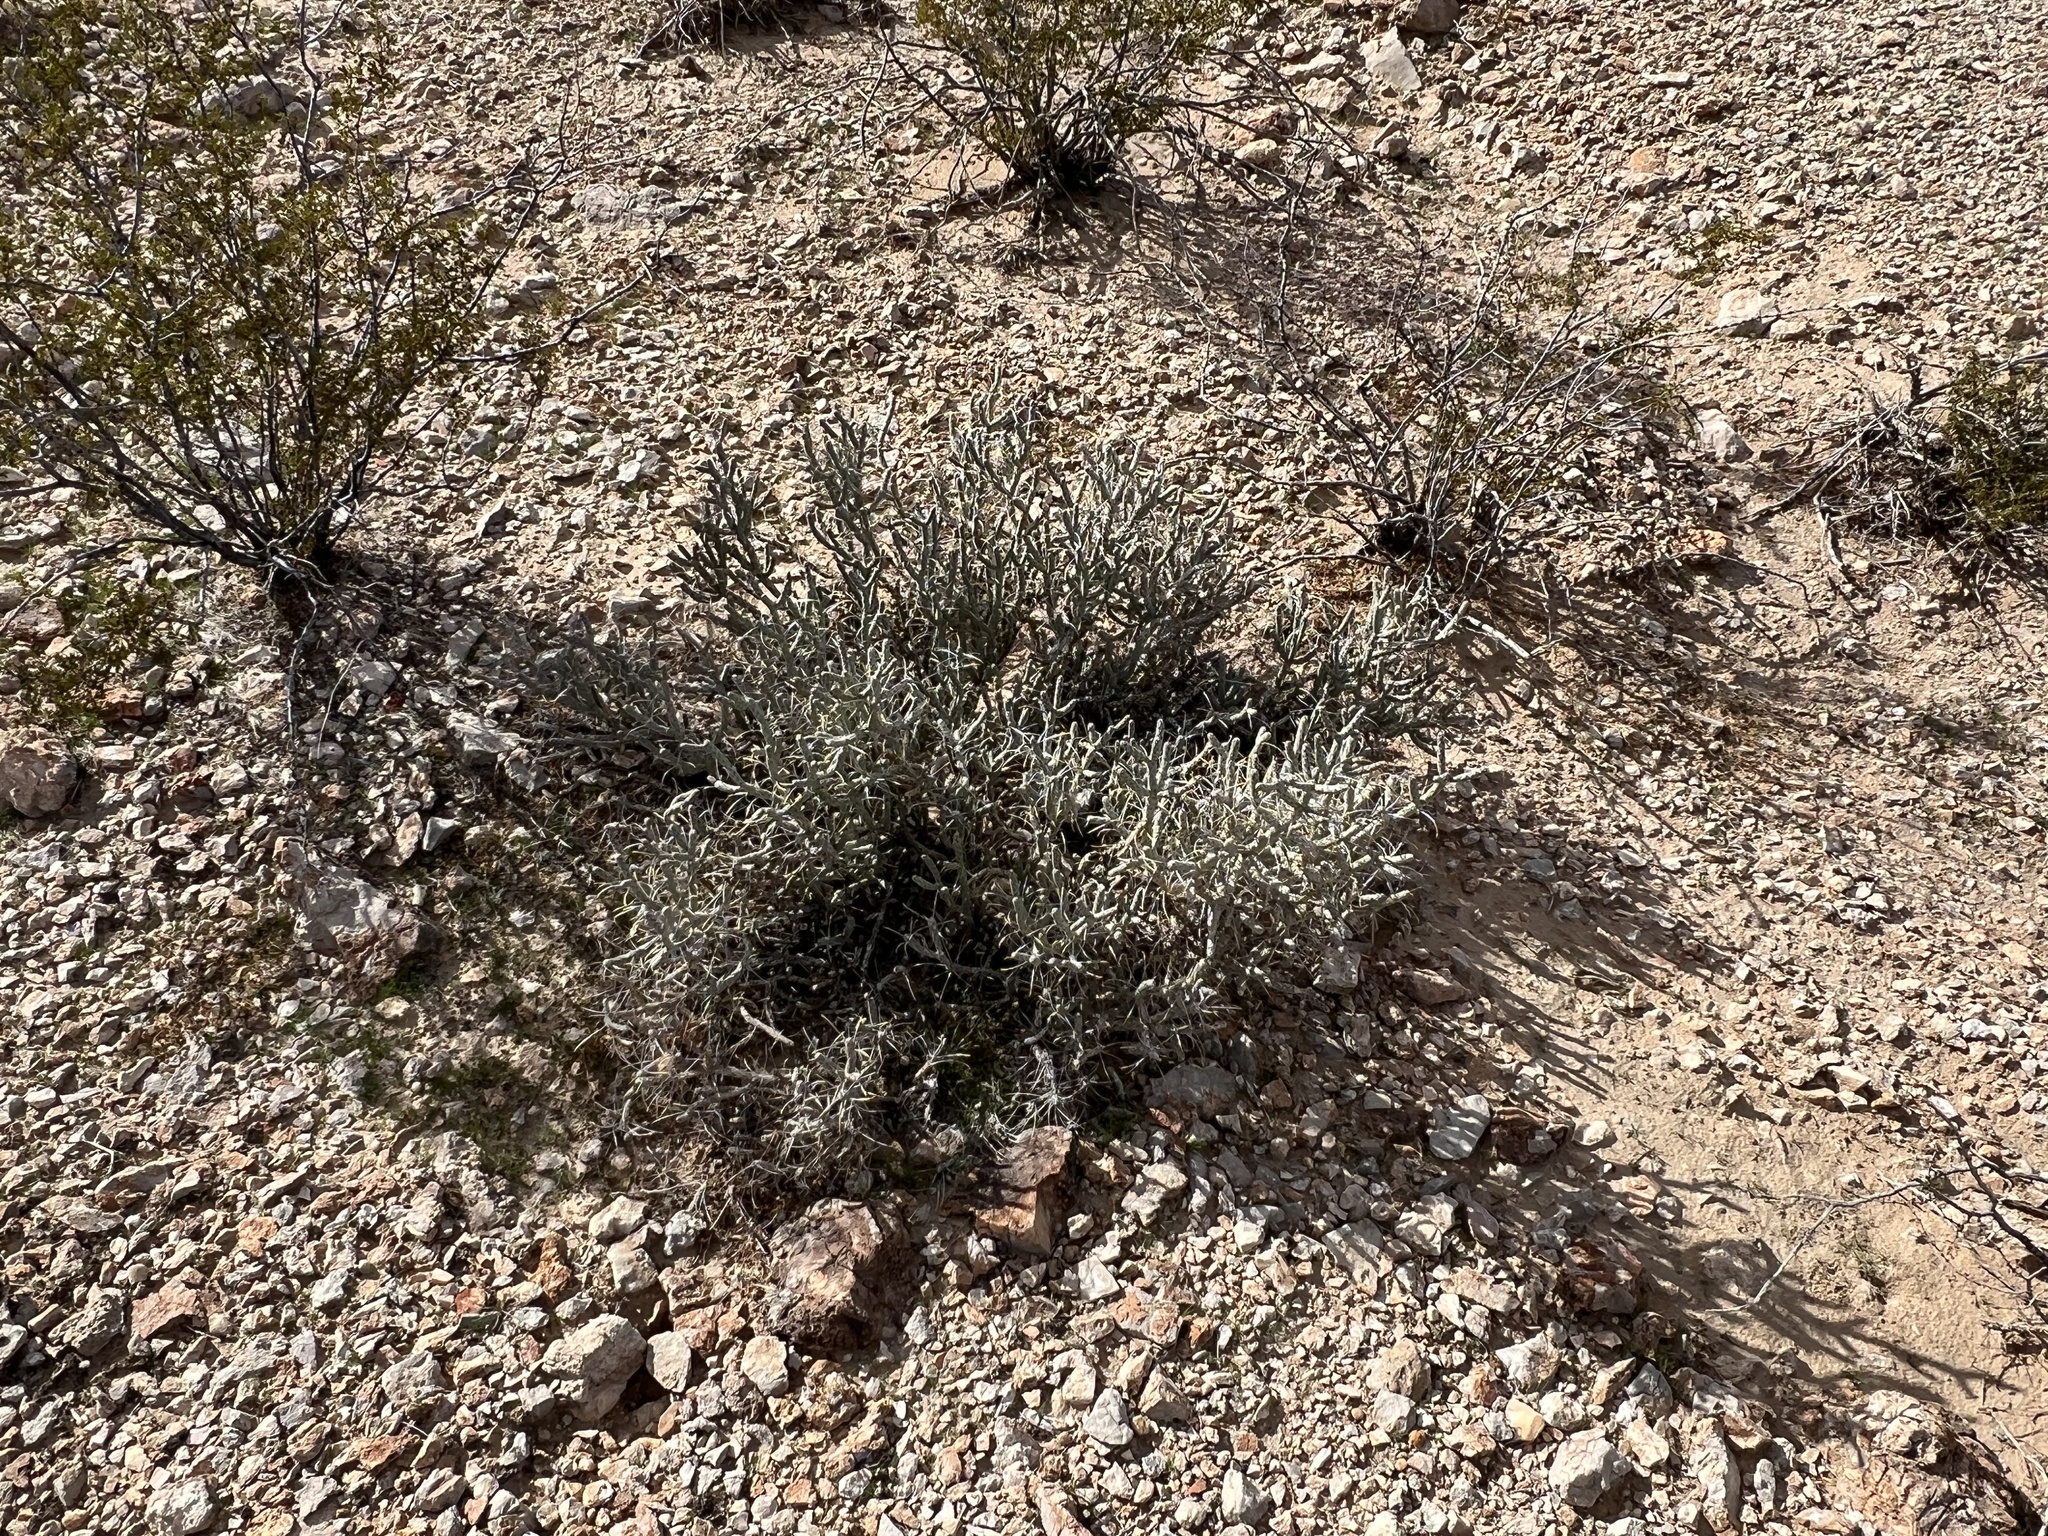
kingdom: Plantae
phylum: Tracheophyta
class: Magnoliopsida
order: Caryophyllales
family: Cactaceae
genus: Cylindropuntia
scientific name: Cylindropuntia ramosissima
